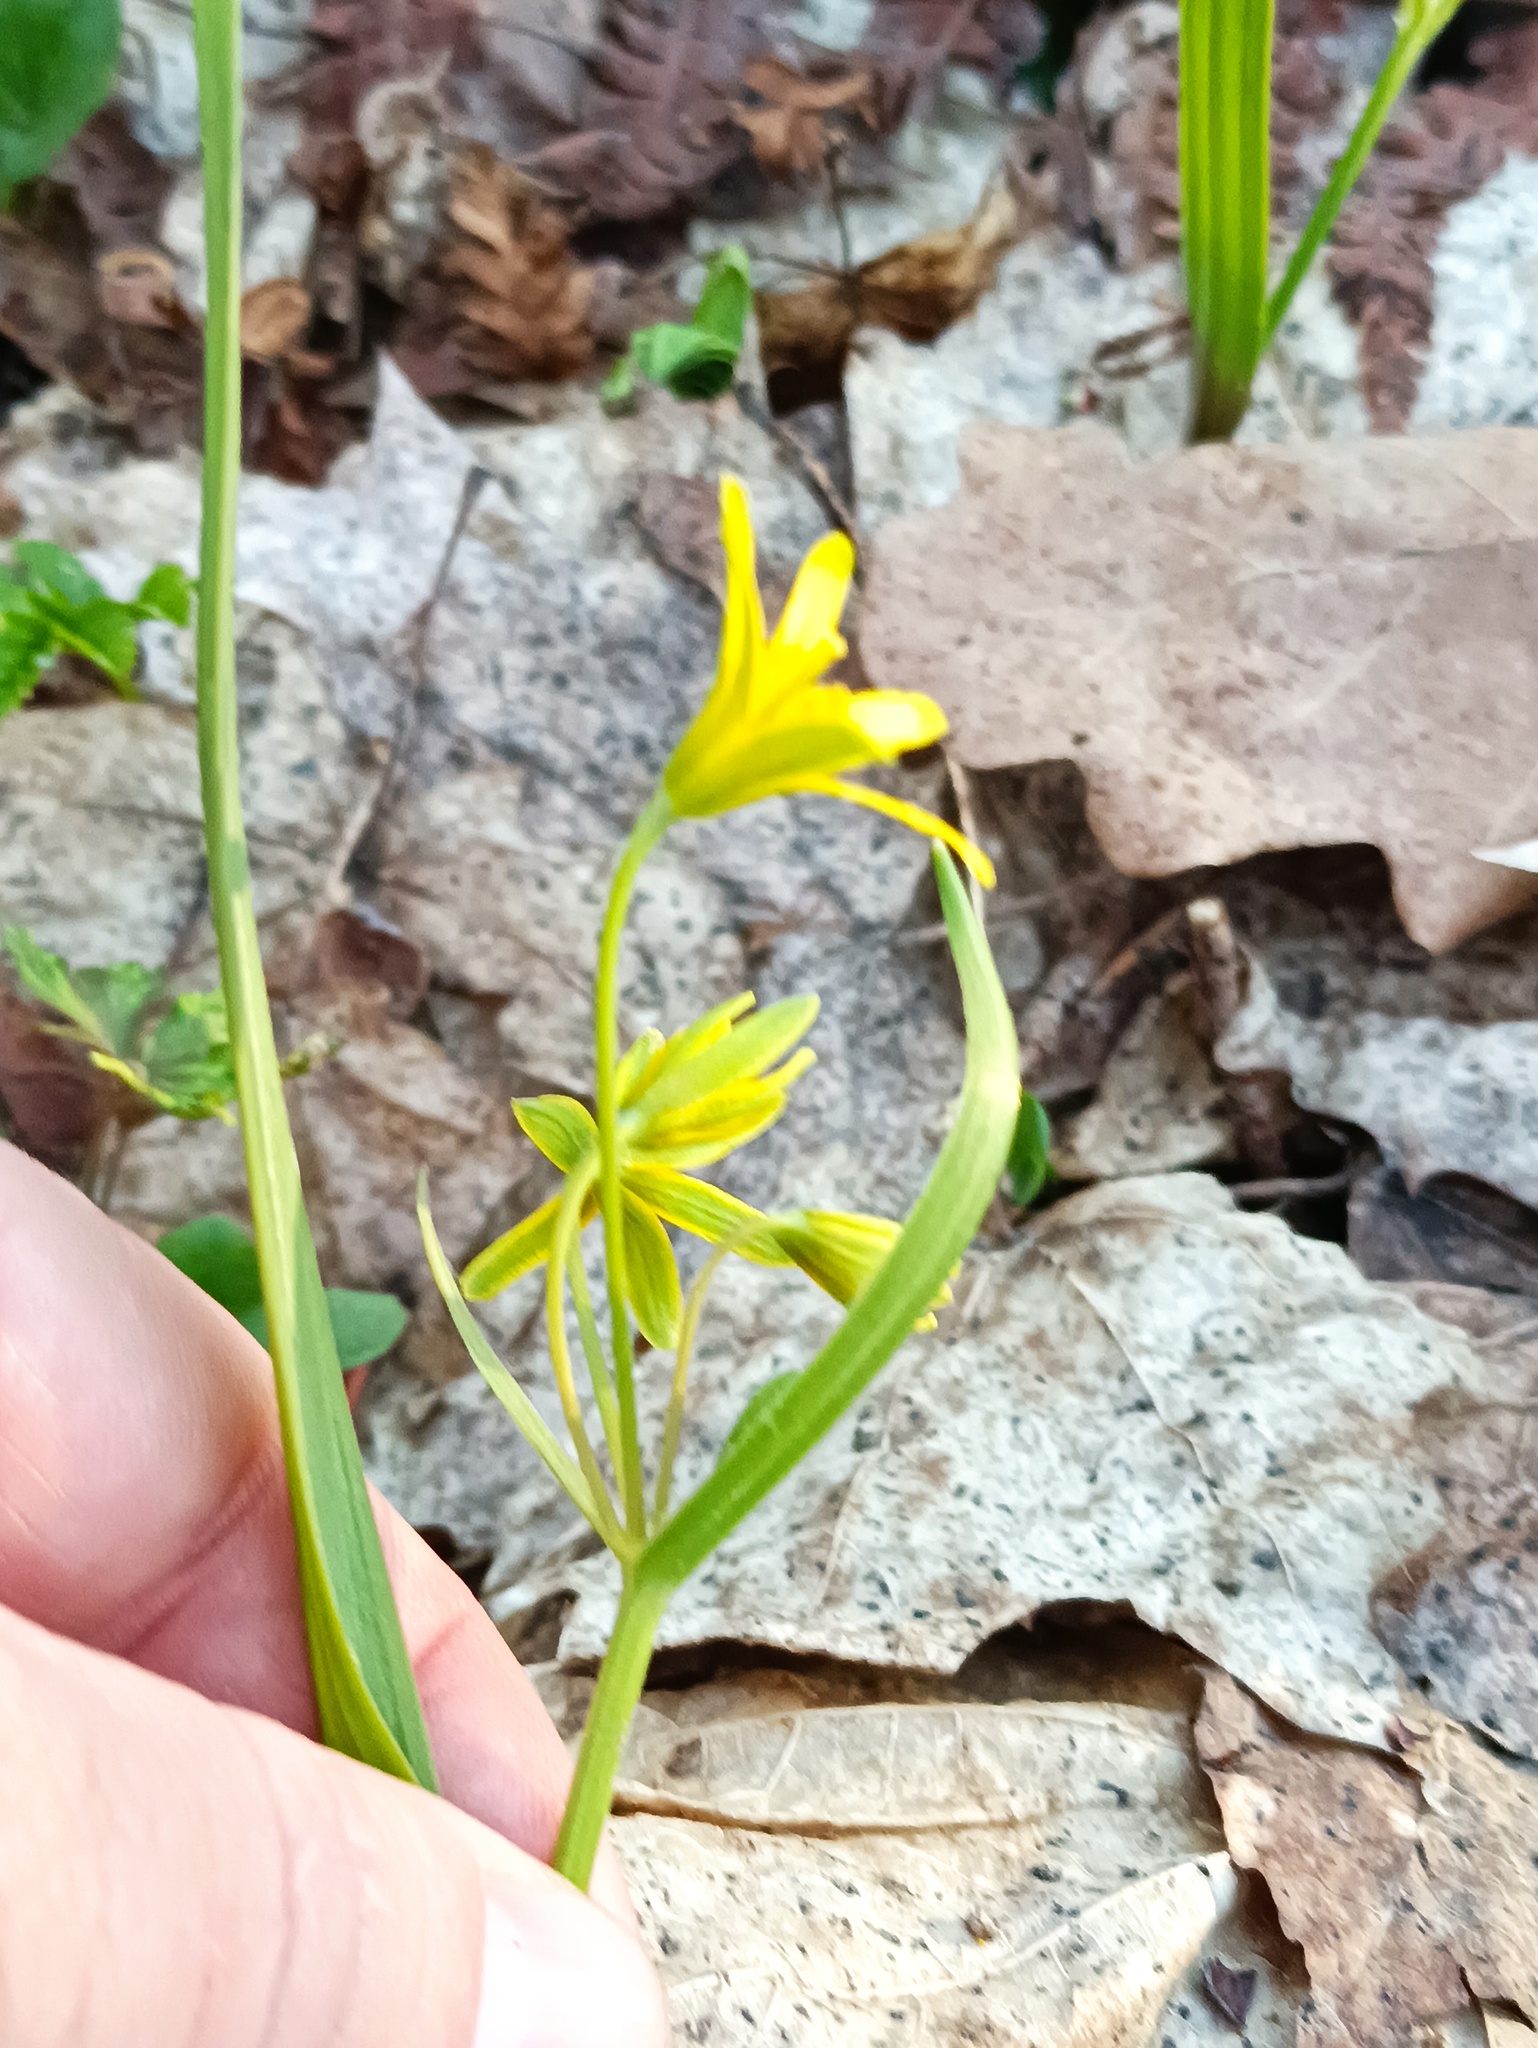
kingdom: Plantae
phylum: Tracheophyta
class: Liliopsida
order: Liliales
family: Liliaceae
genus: Gagea
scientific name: Gagea lutea
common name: Yellow star-of-bethlehem
